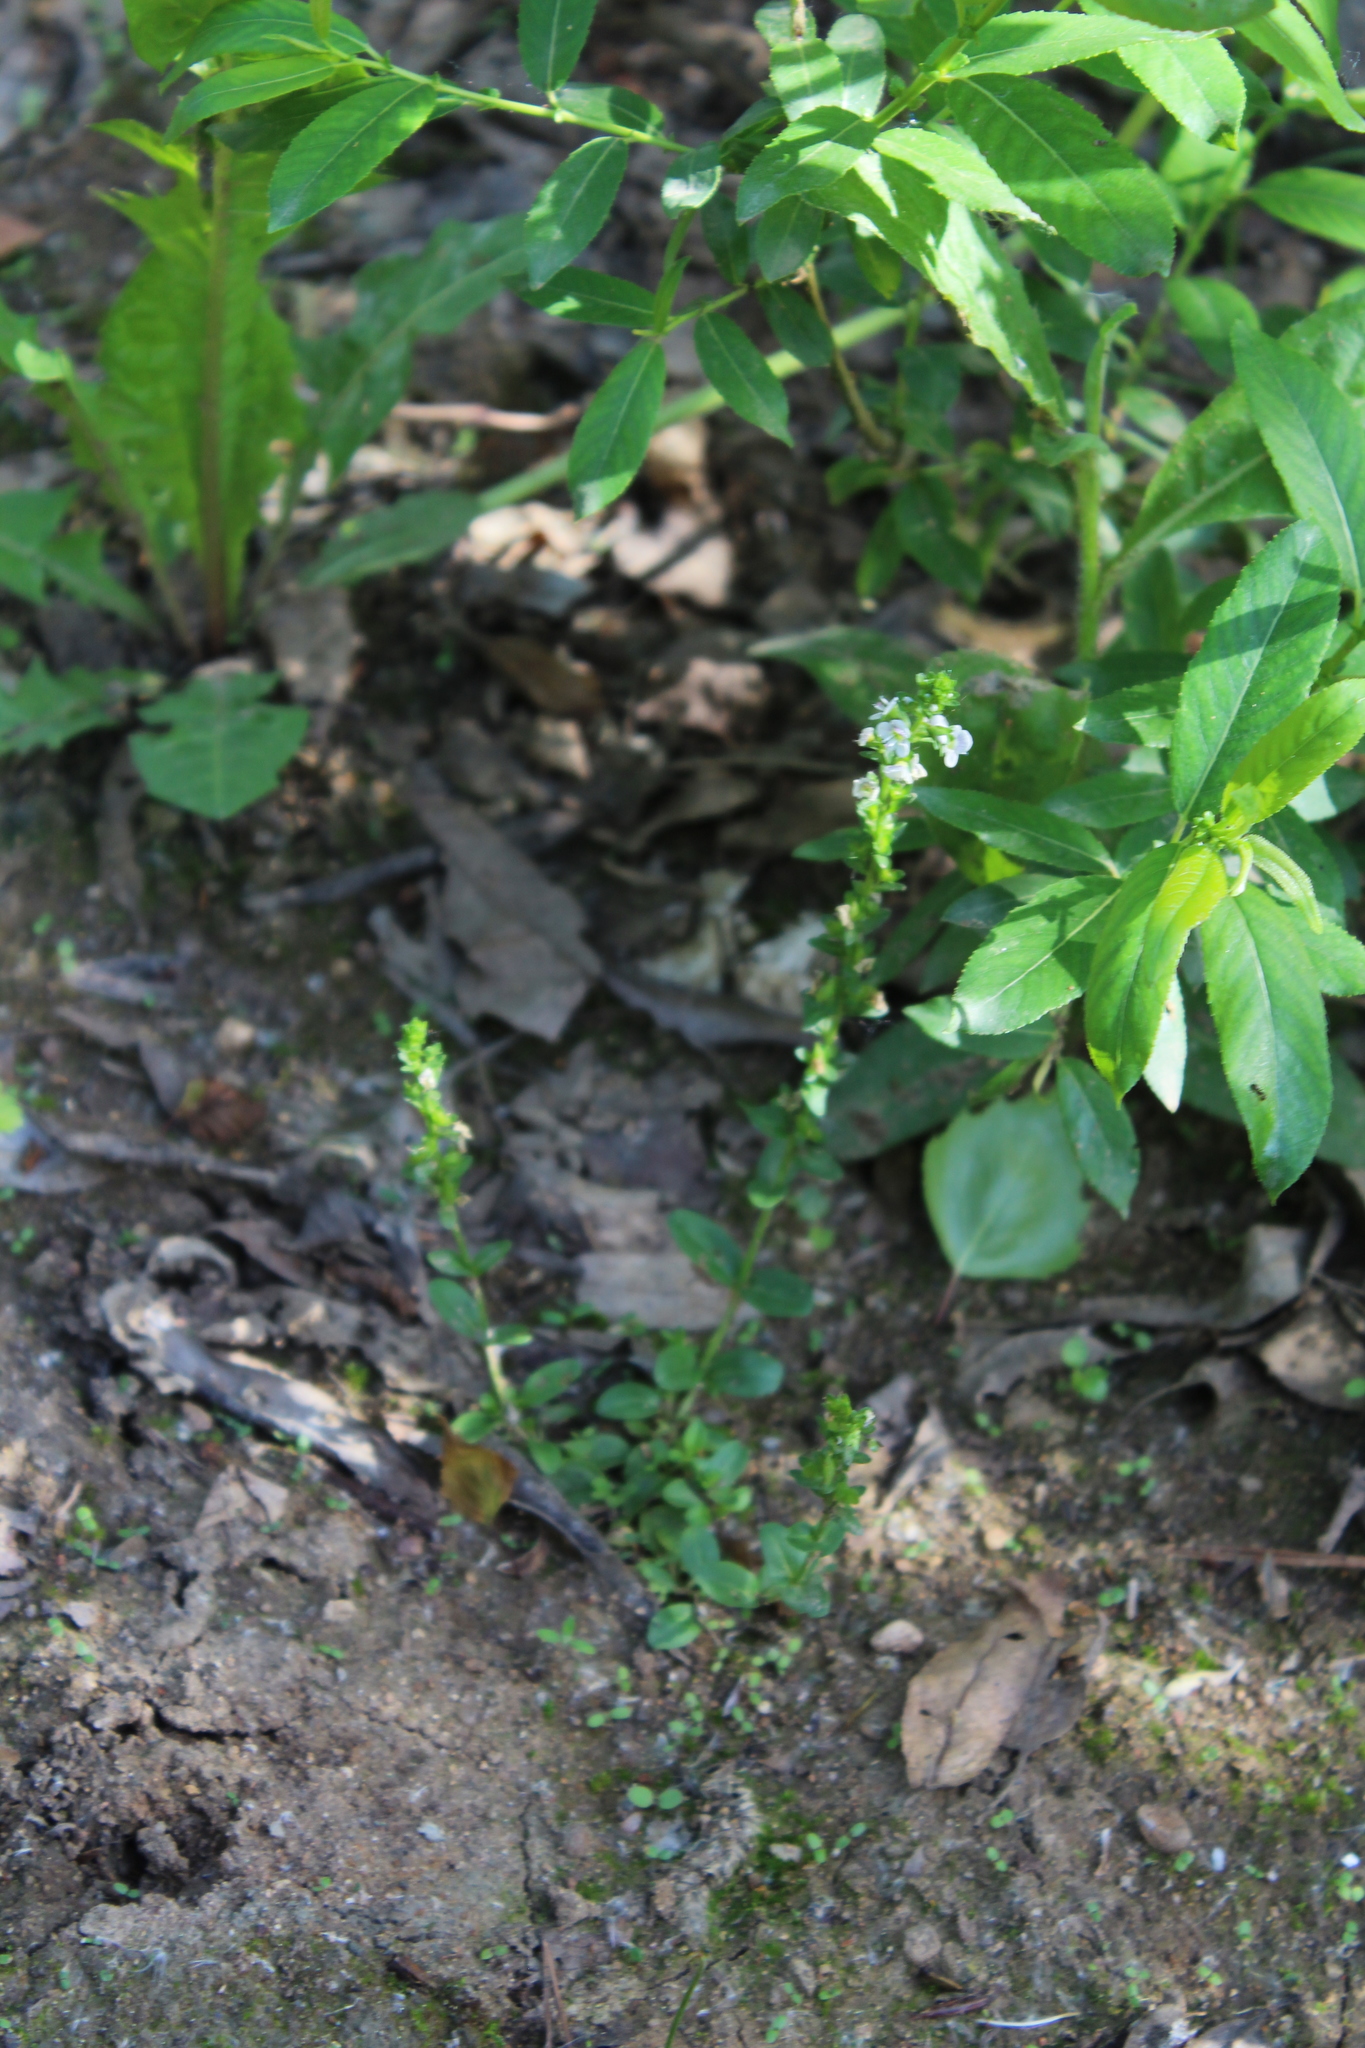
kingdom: Plantae
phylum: Tracheophyta
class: Magnoliopsida
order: Lamiales
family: Plantaginaceae
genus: Veronica
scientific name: Veronica serpyllifolia
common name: Thyme-leaved speedwell
